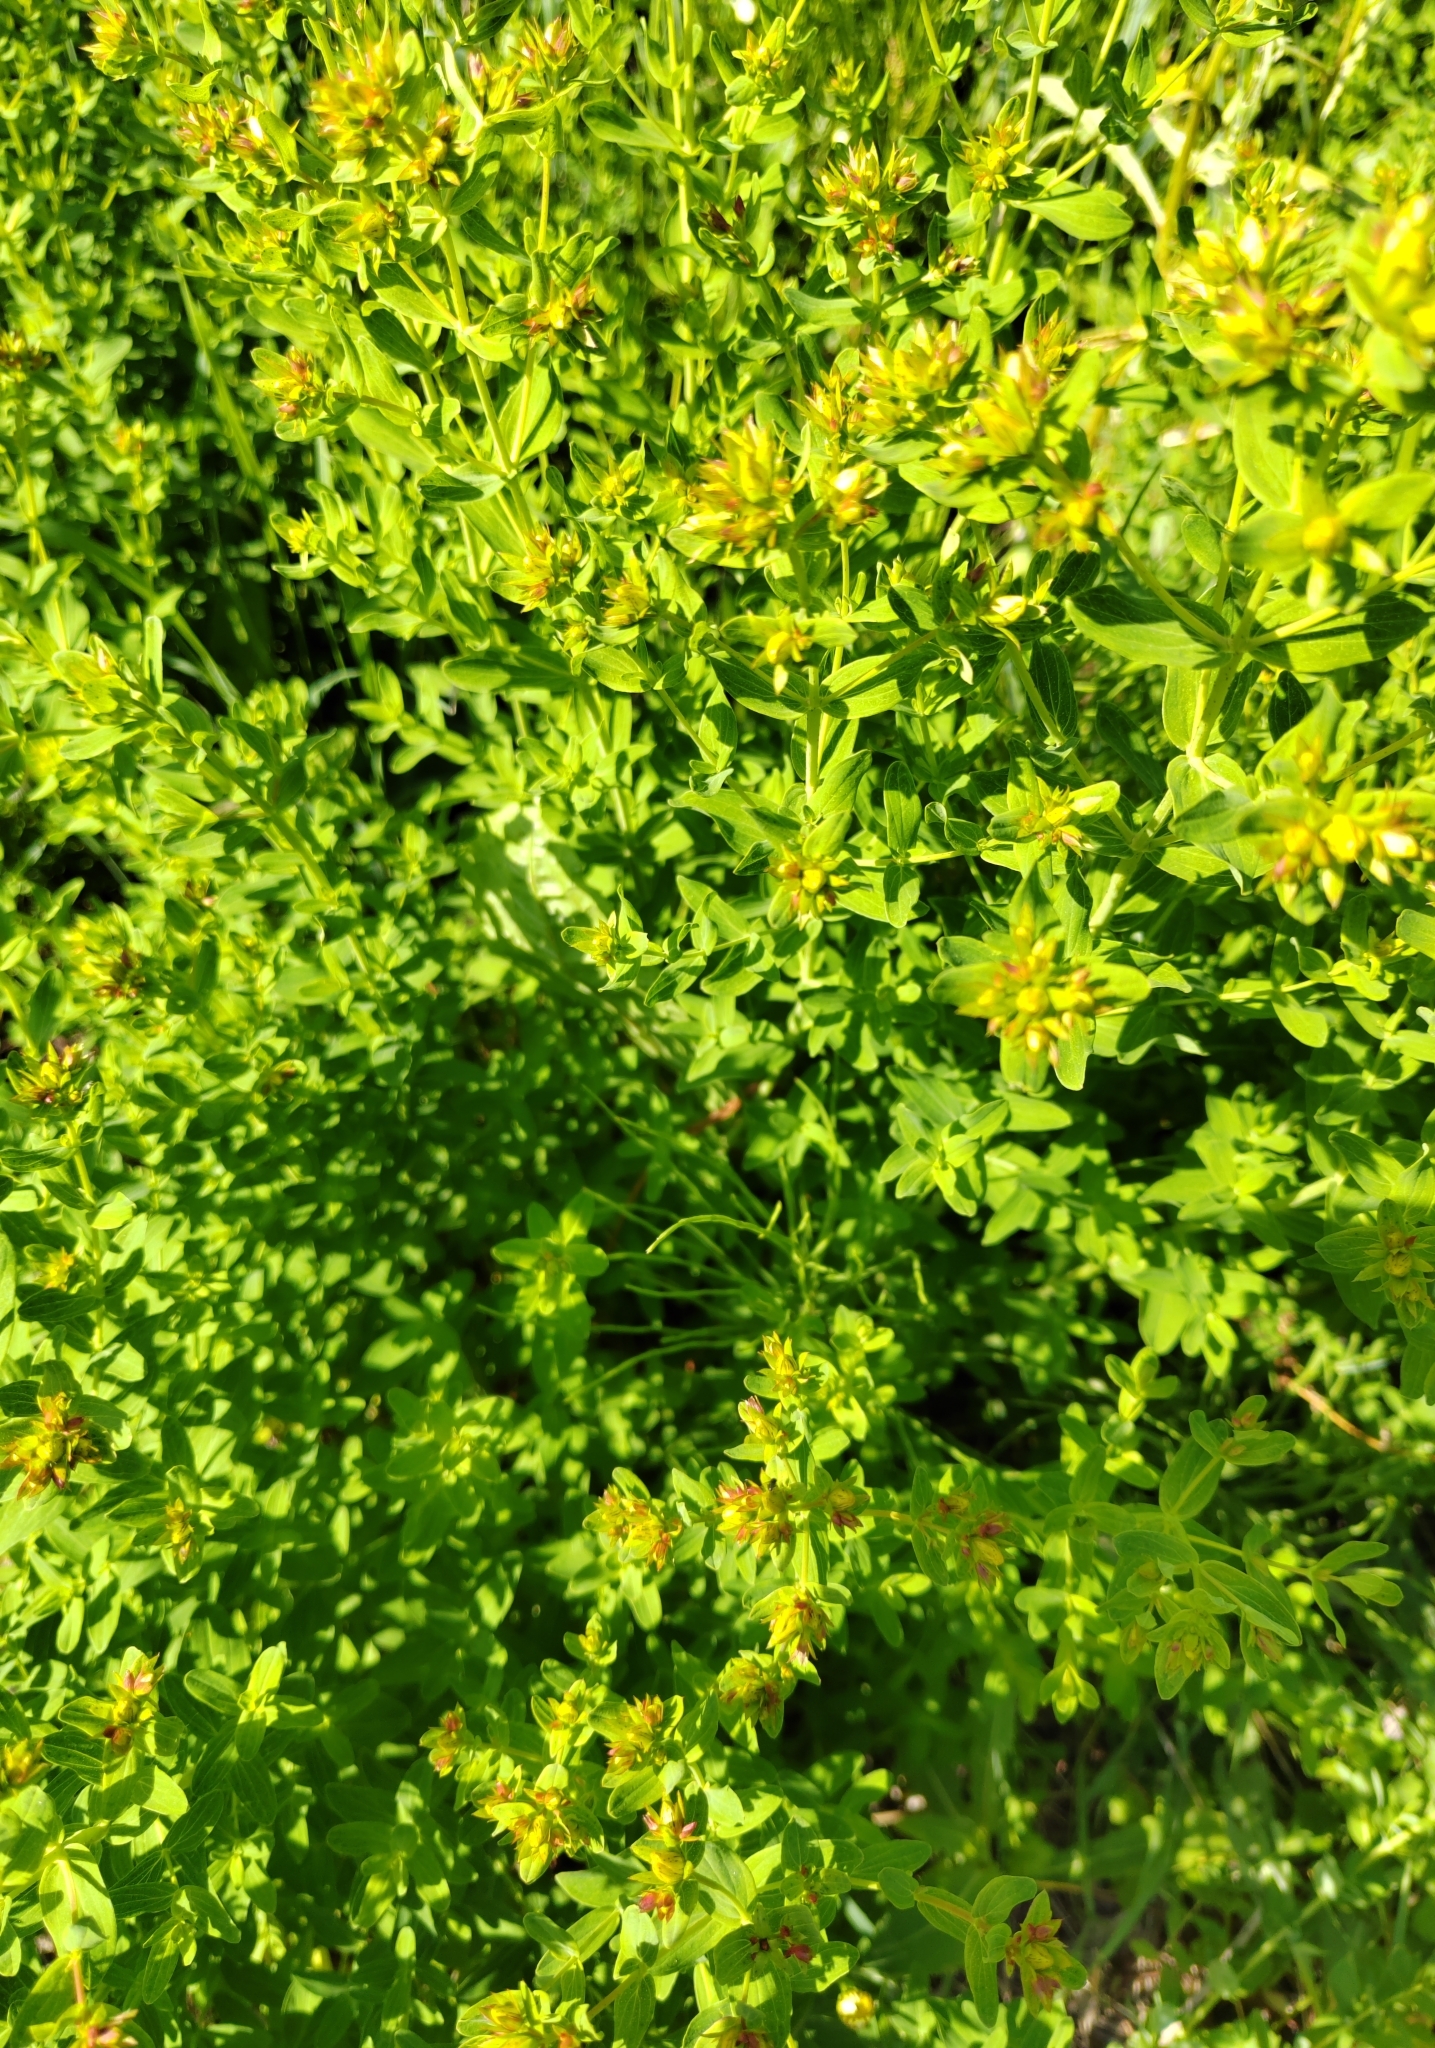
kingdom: Plantae
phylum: Tracheophyta
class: Magnoliopsida
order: Malpighiales
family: Hypericaceae
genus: Hypericum
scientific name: Hypericum perforatum
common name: Common st. johnswort
